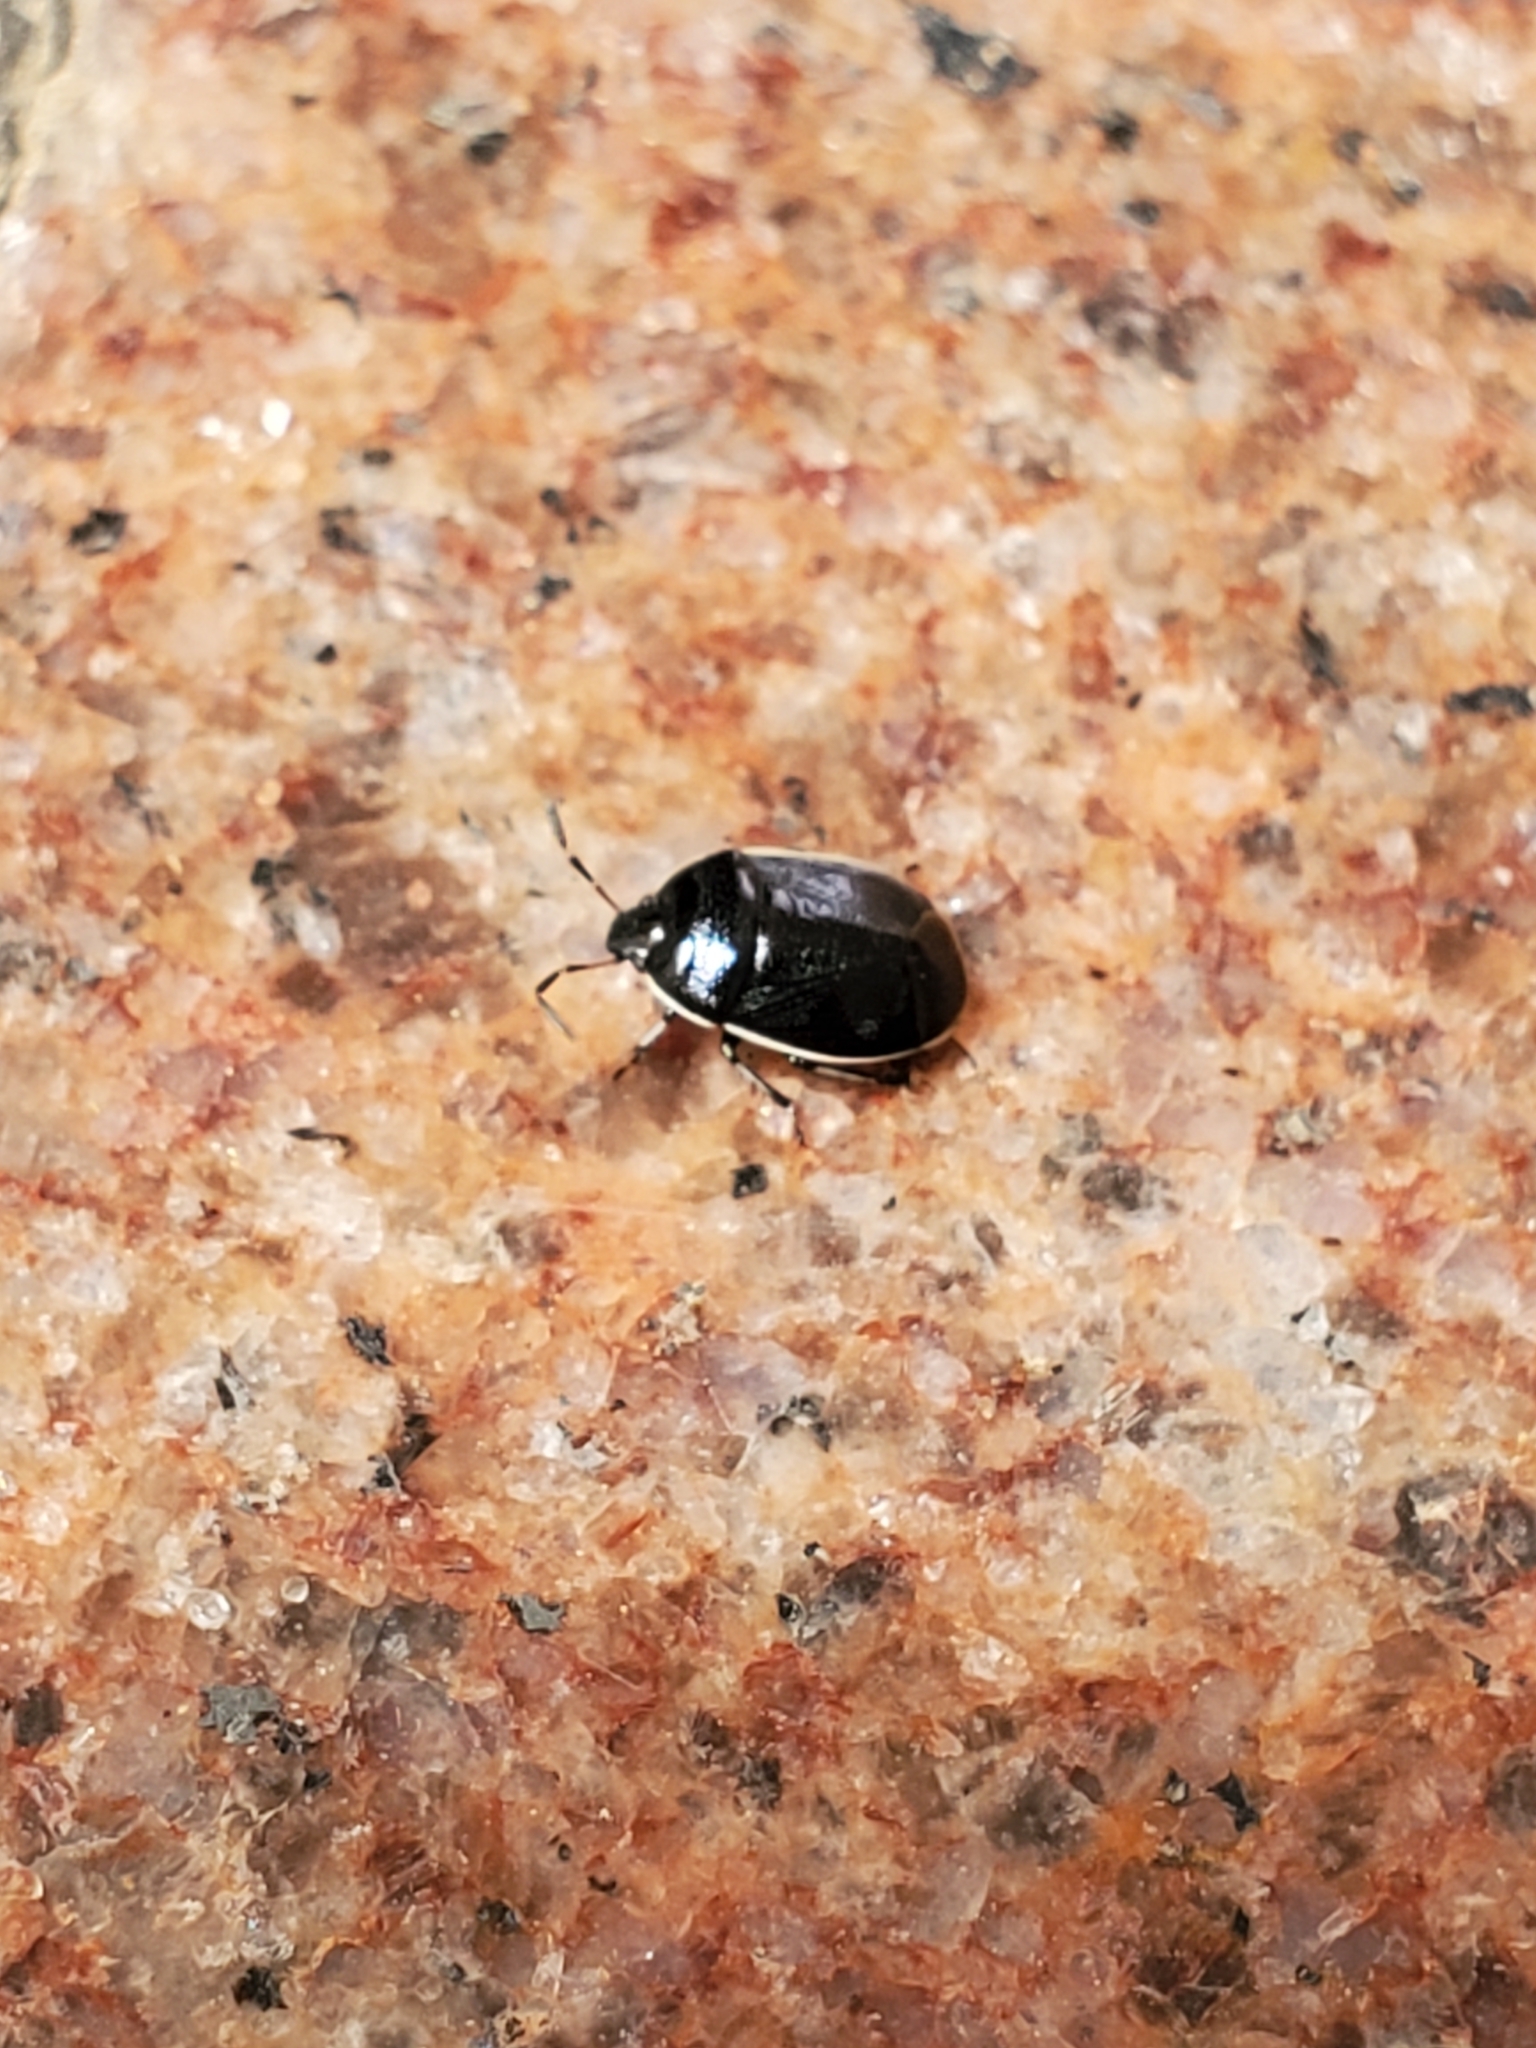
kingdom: Animalia
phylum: Arthropoda
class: Insecta
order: Hemiptera
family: Cydnidae
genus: Sehirus
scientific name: Sehirus cinctus
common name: White-margined burrower bug
